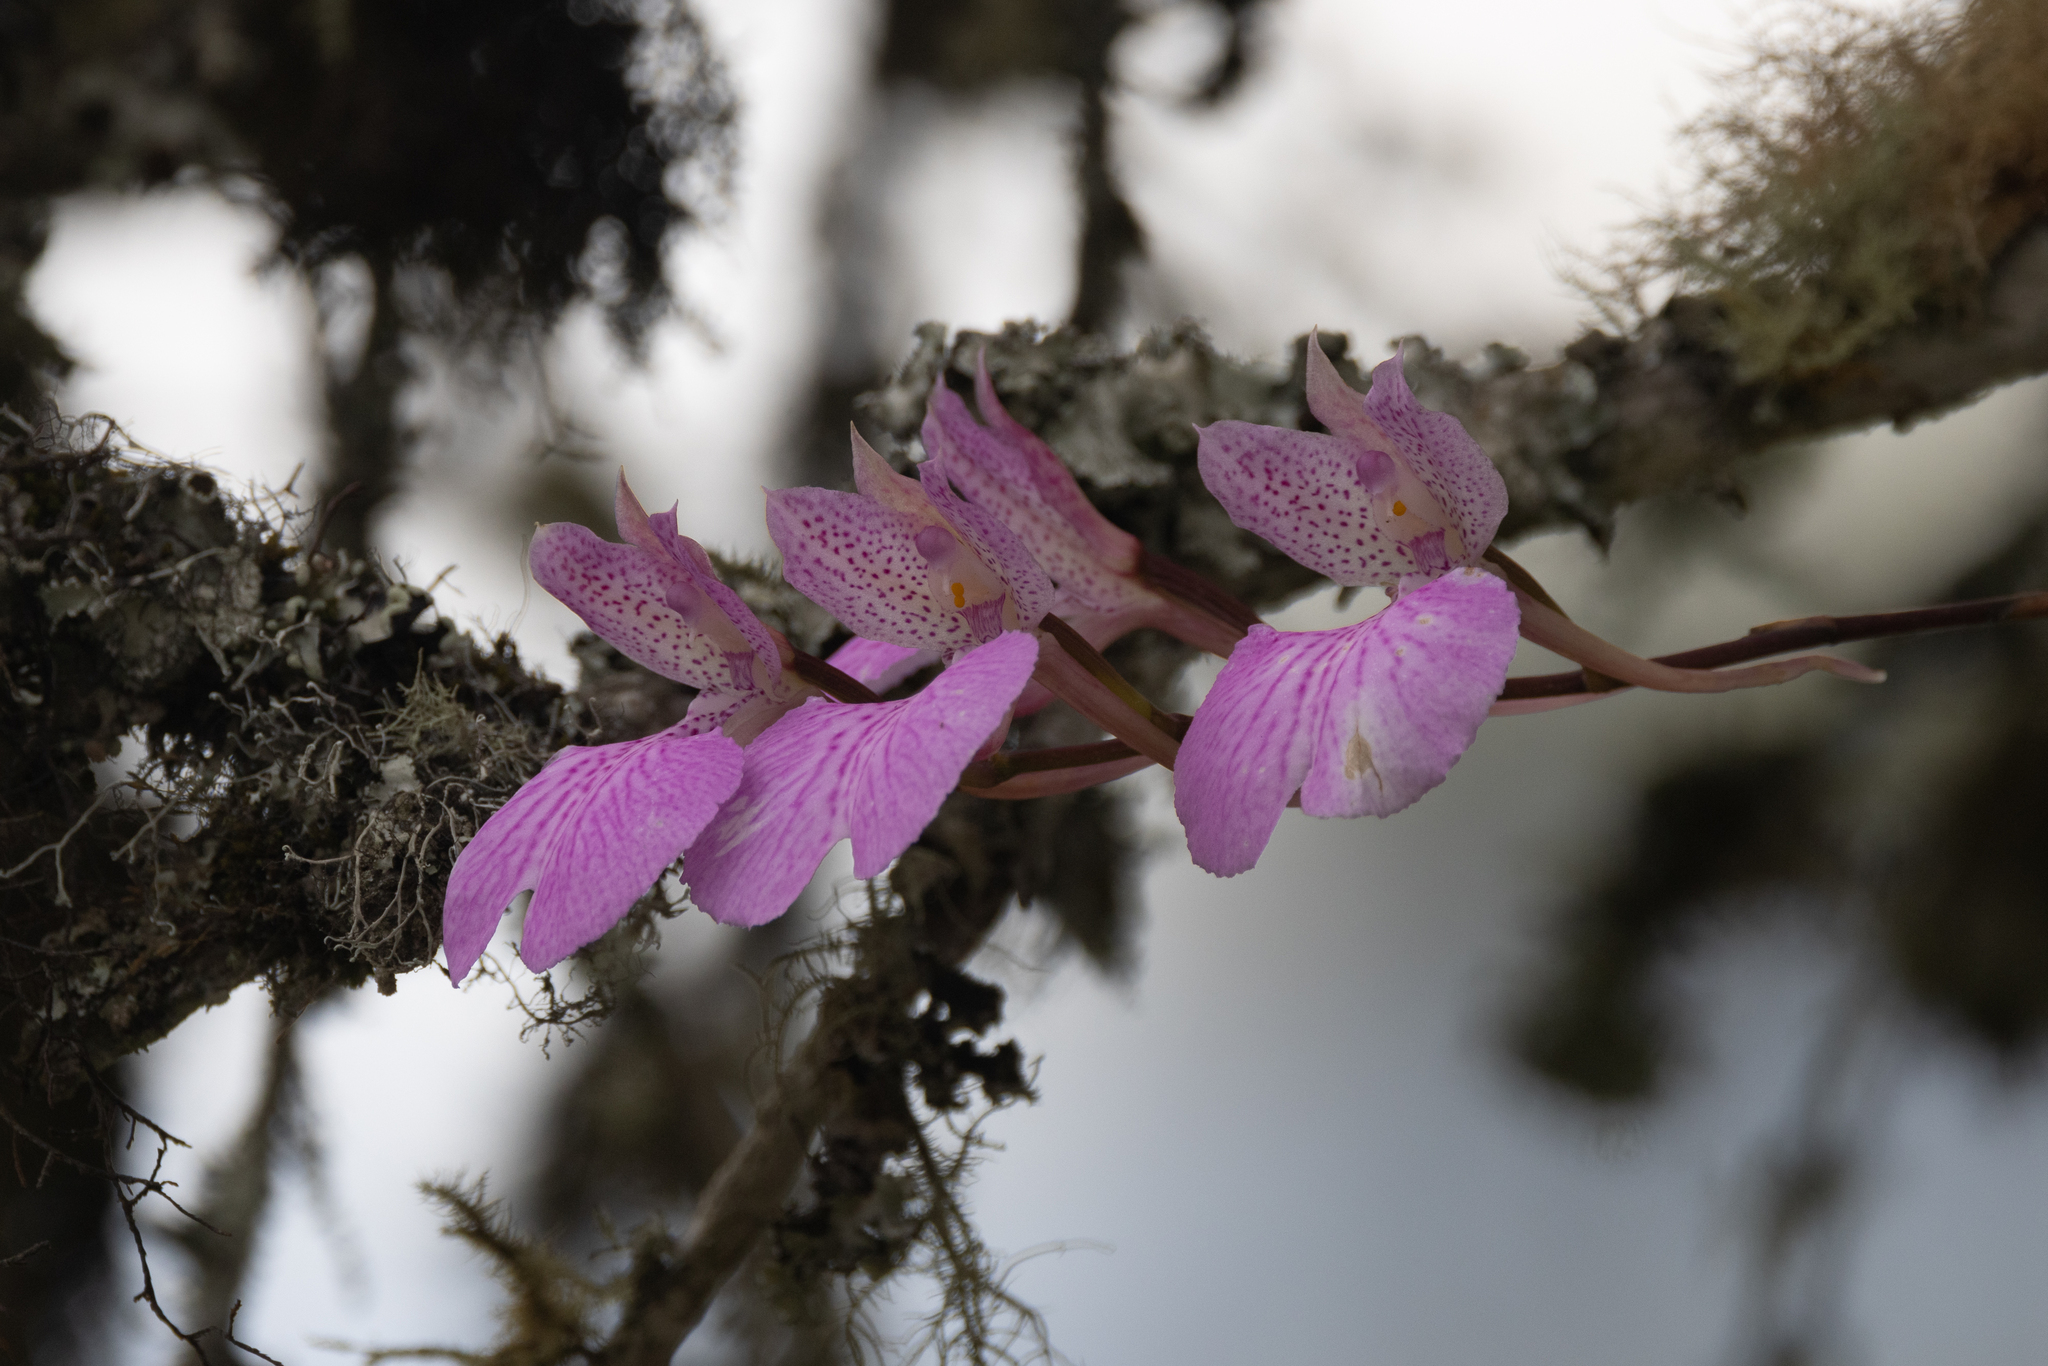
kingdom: Plantae
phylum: Tracheophyta
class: Liliopsida
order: Asparagales
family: Orchidaceae
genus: Comparettia
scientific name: Comparettia macroplectron
